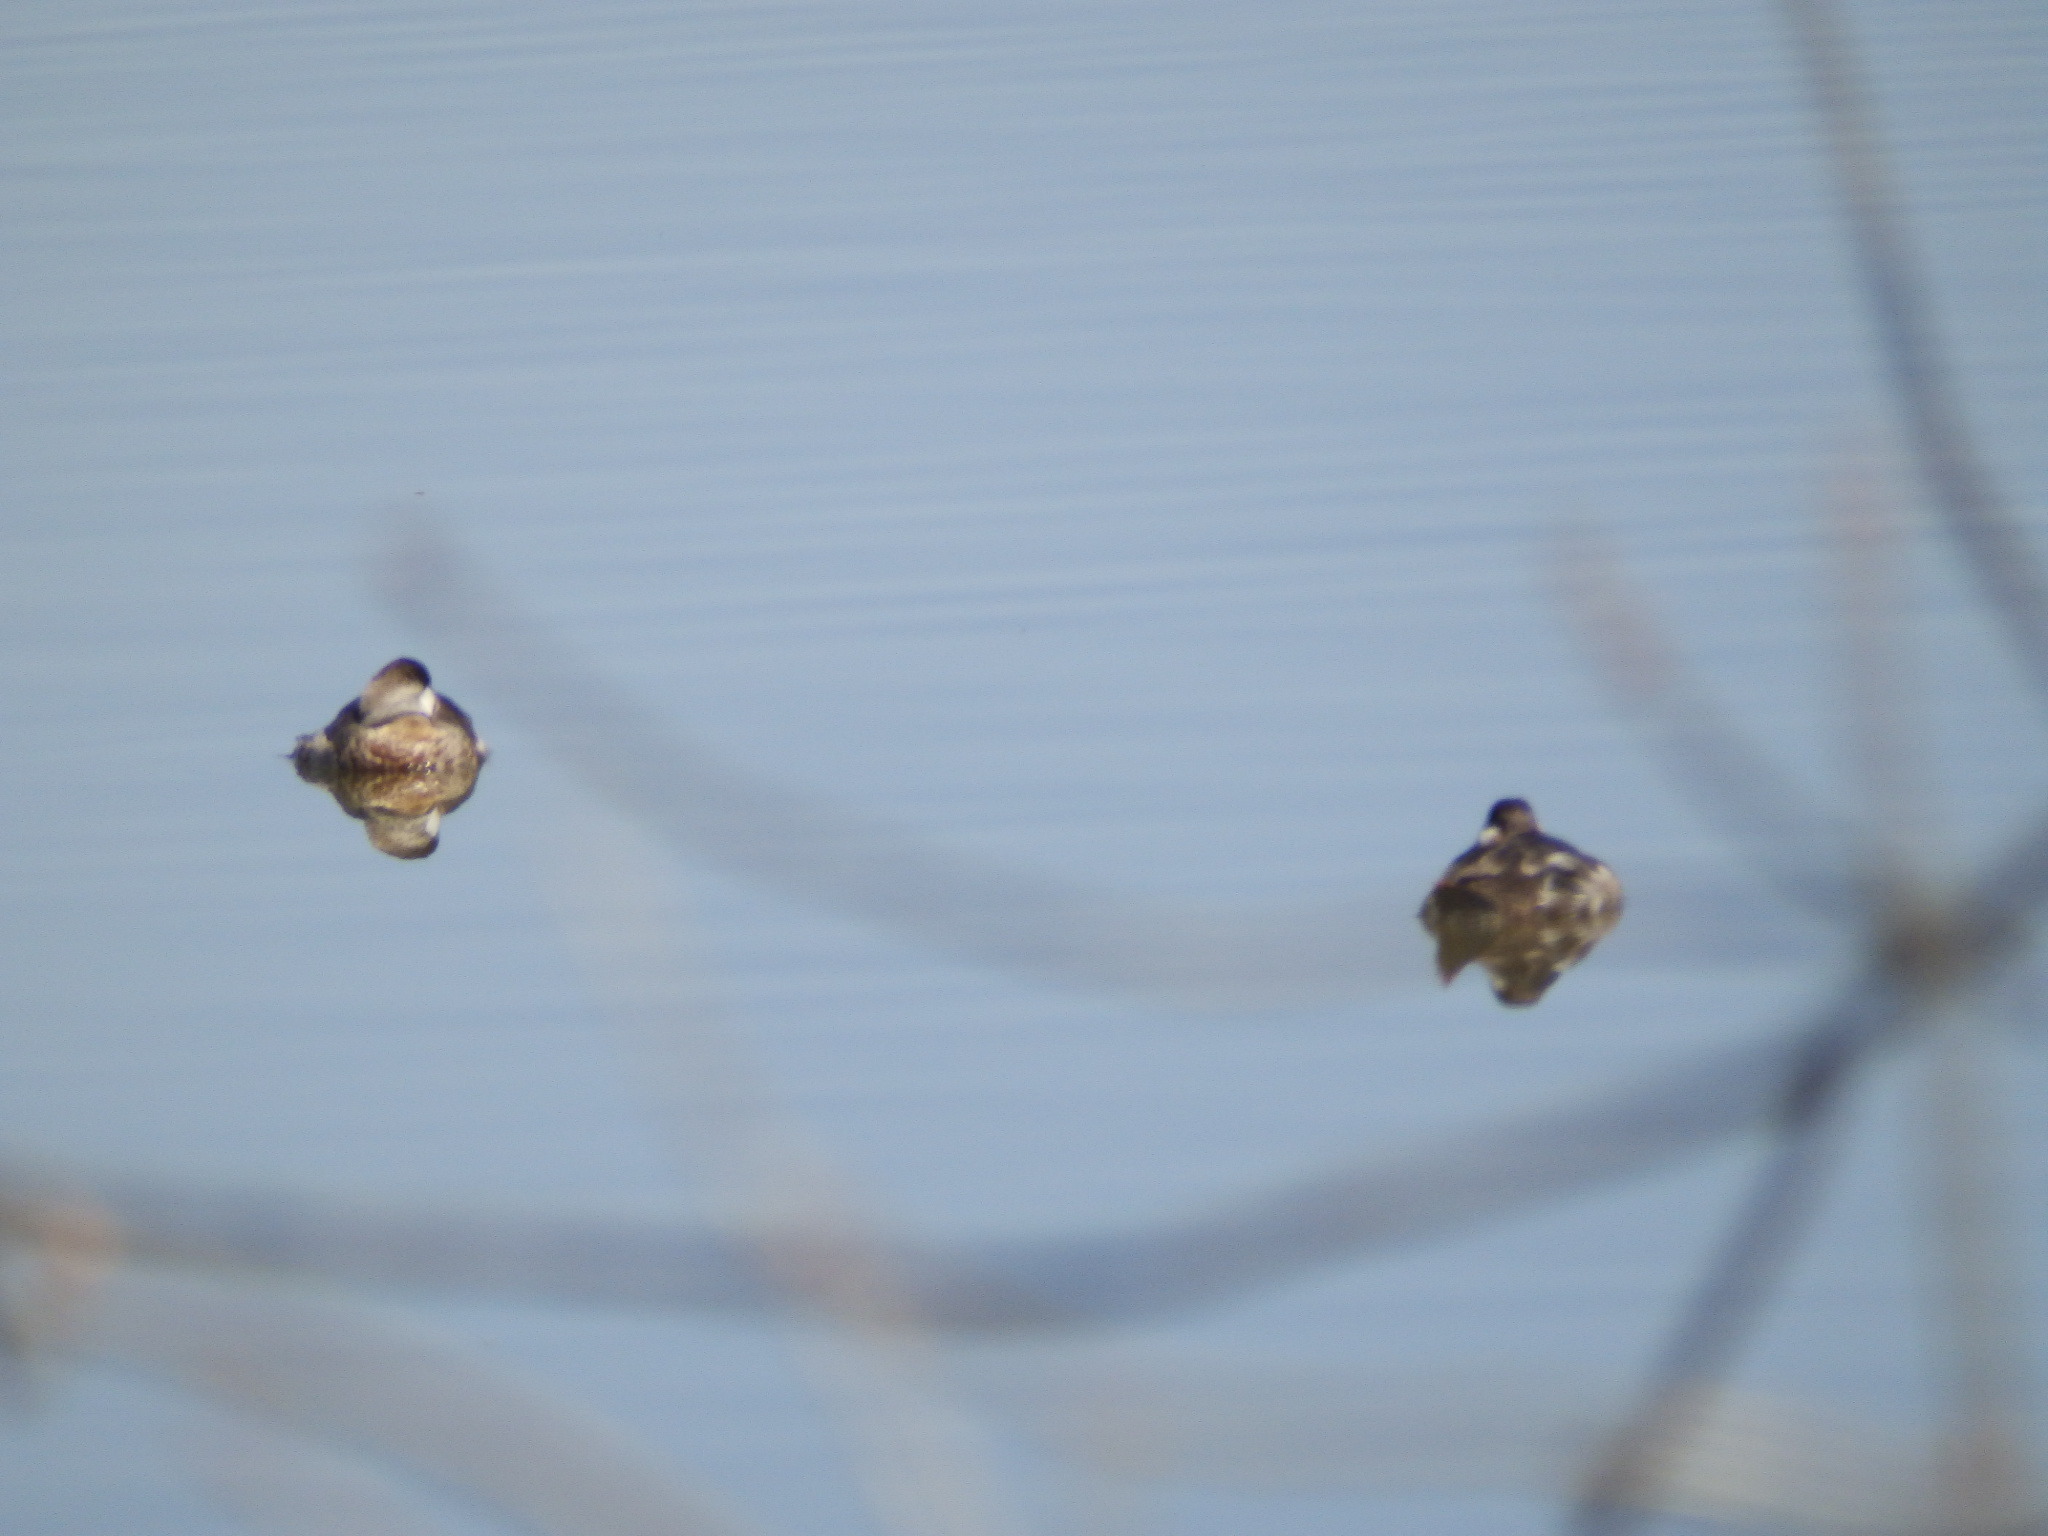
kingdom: Animalia
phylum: Chordata
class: Aves
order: Anseriformes
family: Anatidae
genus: Oxyura
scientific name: Oxyura jamaicensis
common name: Ruddy duck
